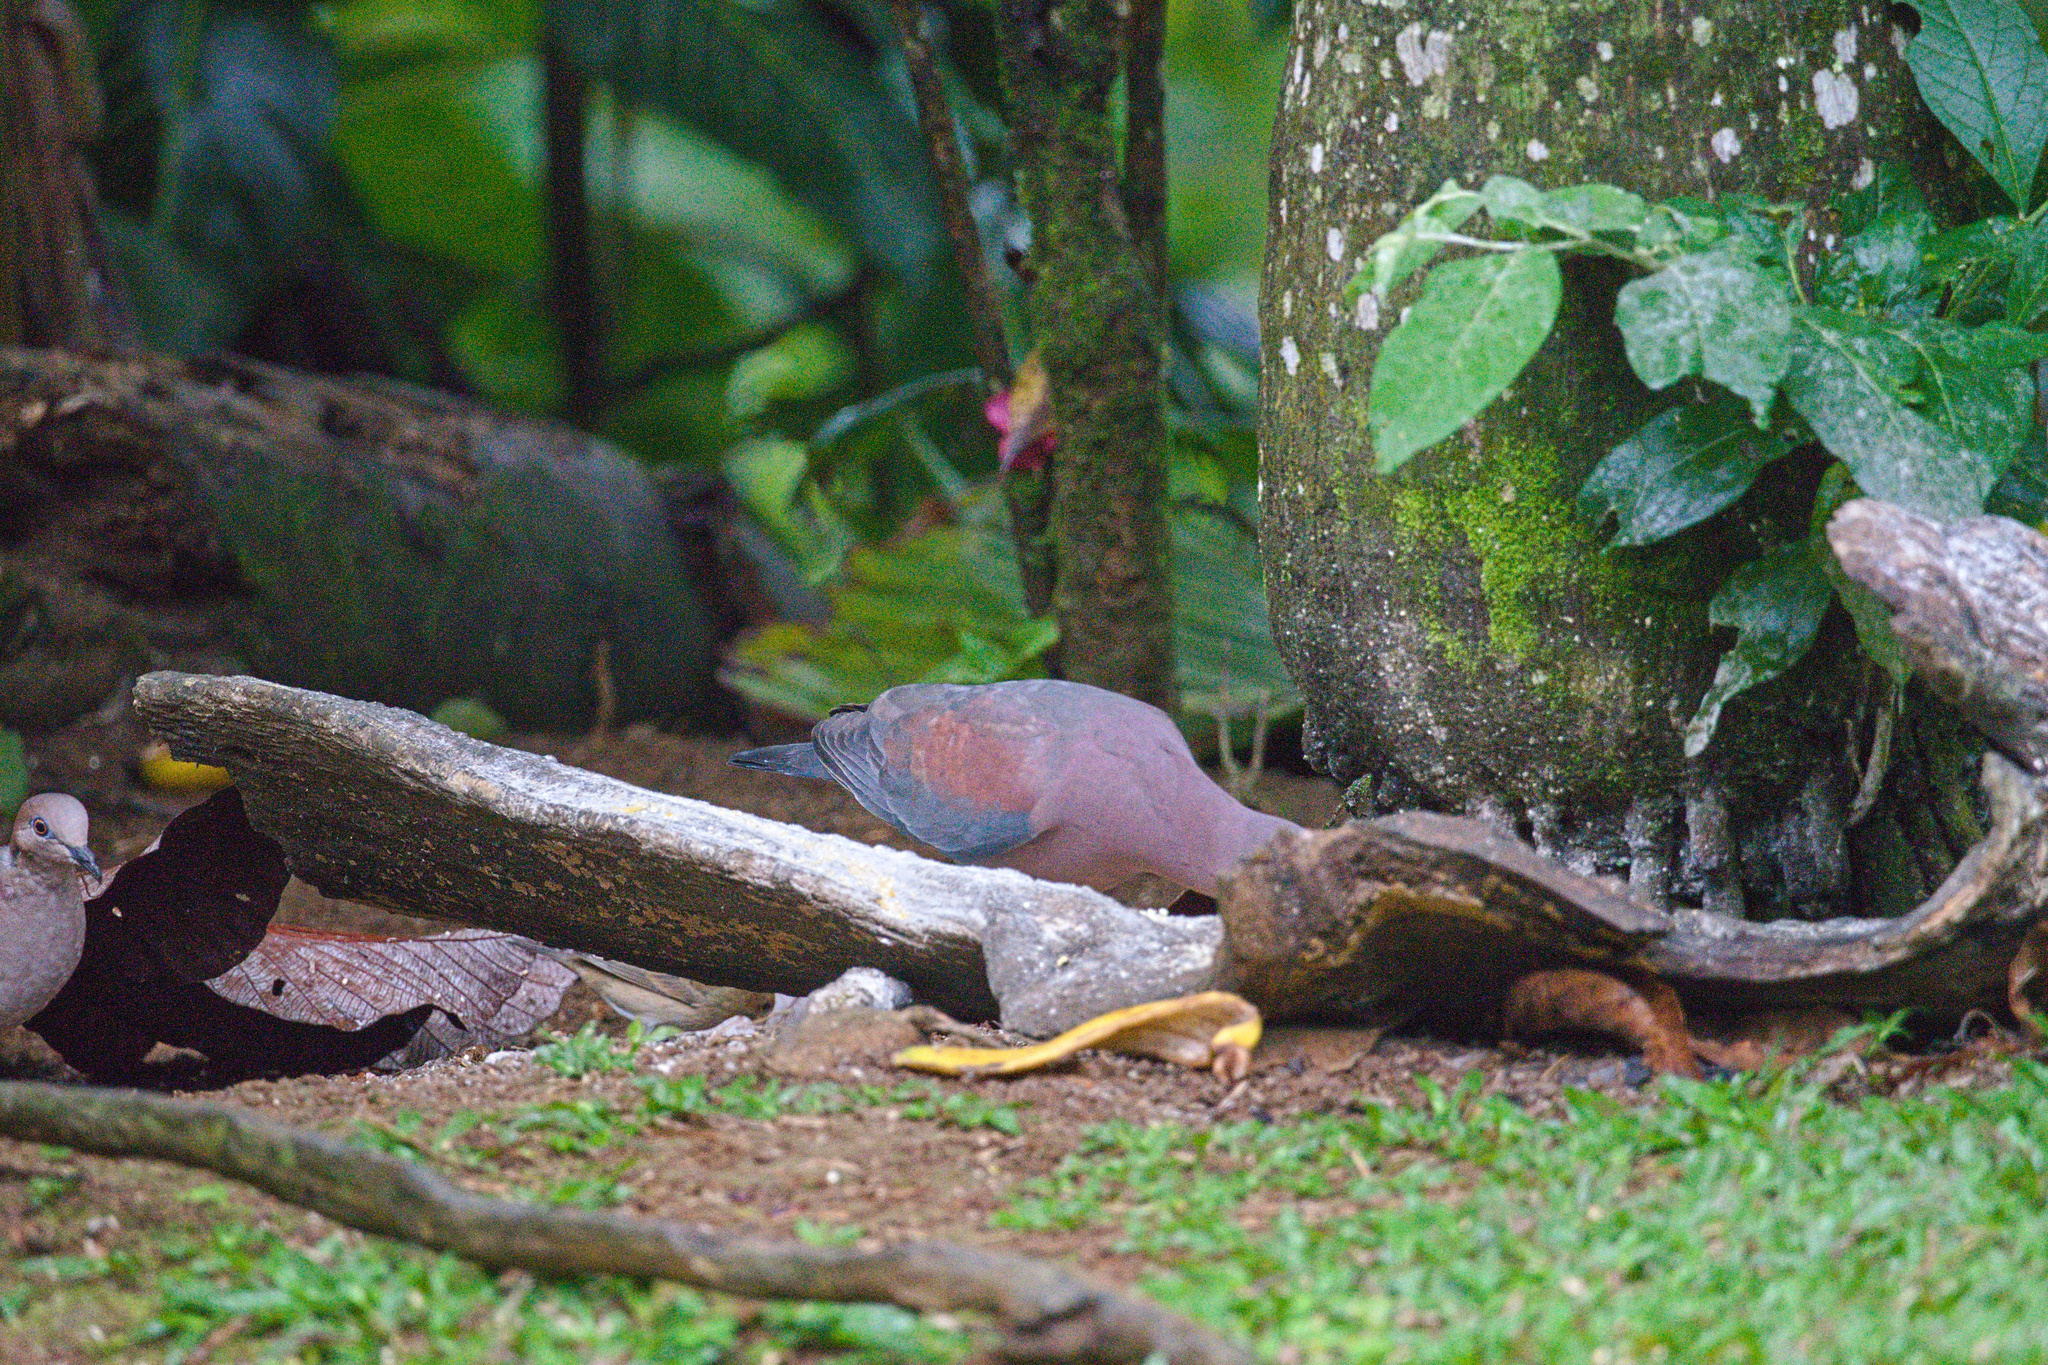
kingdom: Animalia
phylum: Chordata
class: Aves
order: Columbiformes
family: Columbidae
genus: Patagioenas
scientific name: Patagioenas flavirostris
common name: Red-billed pigeon
